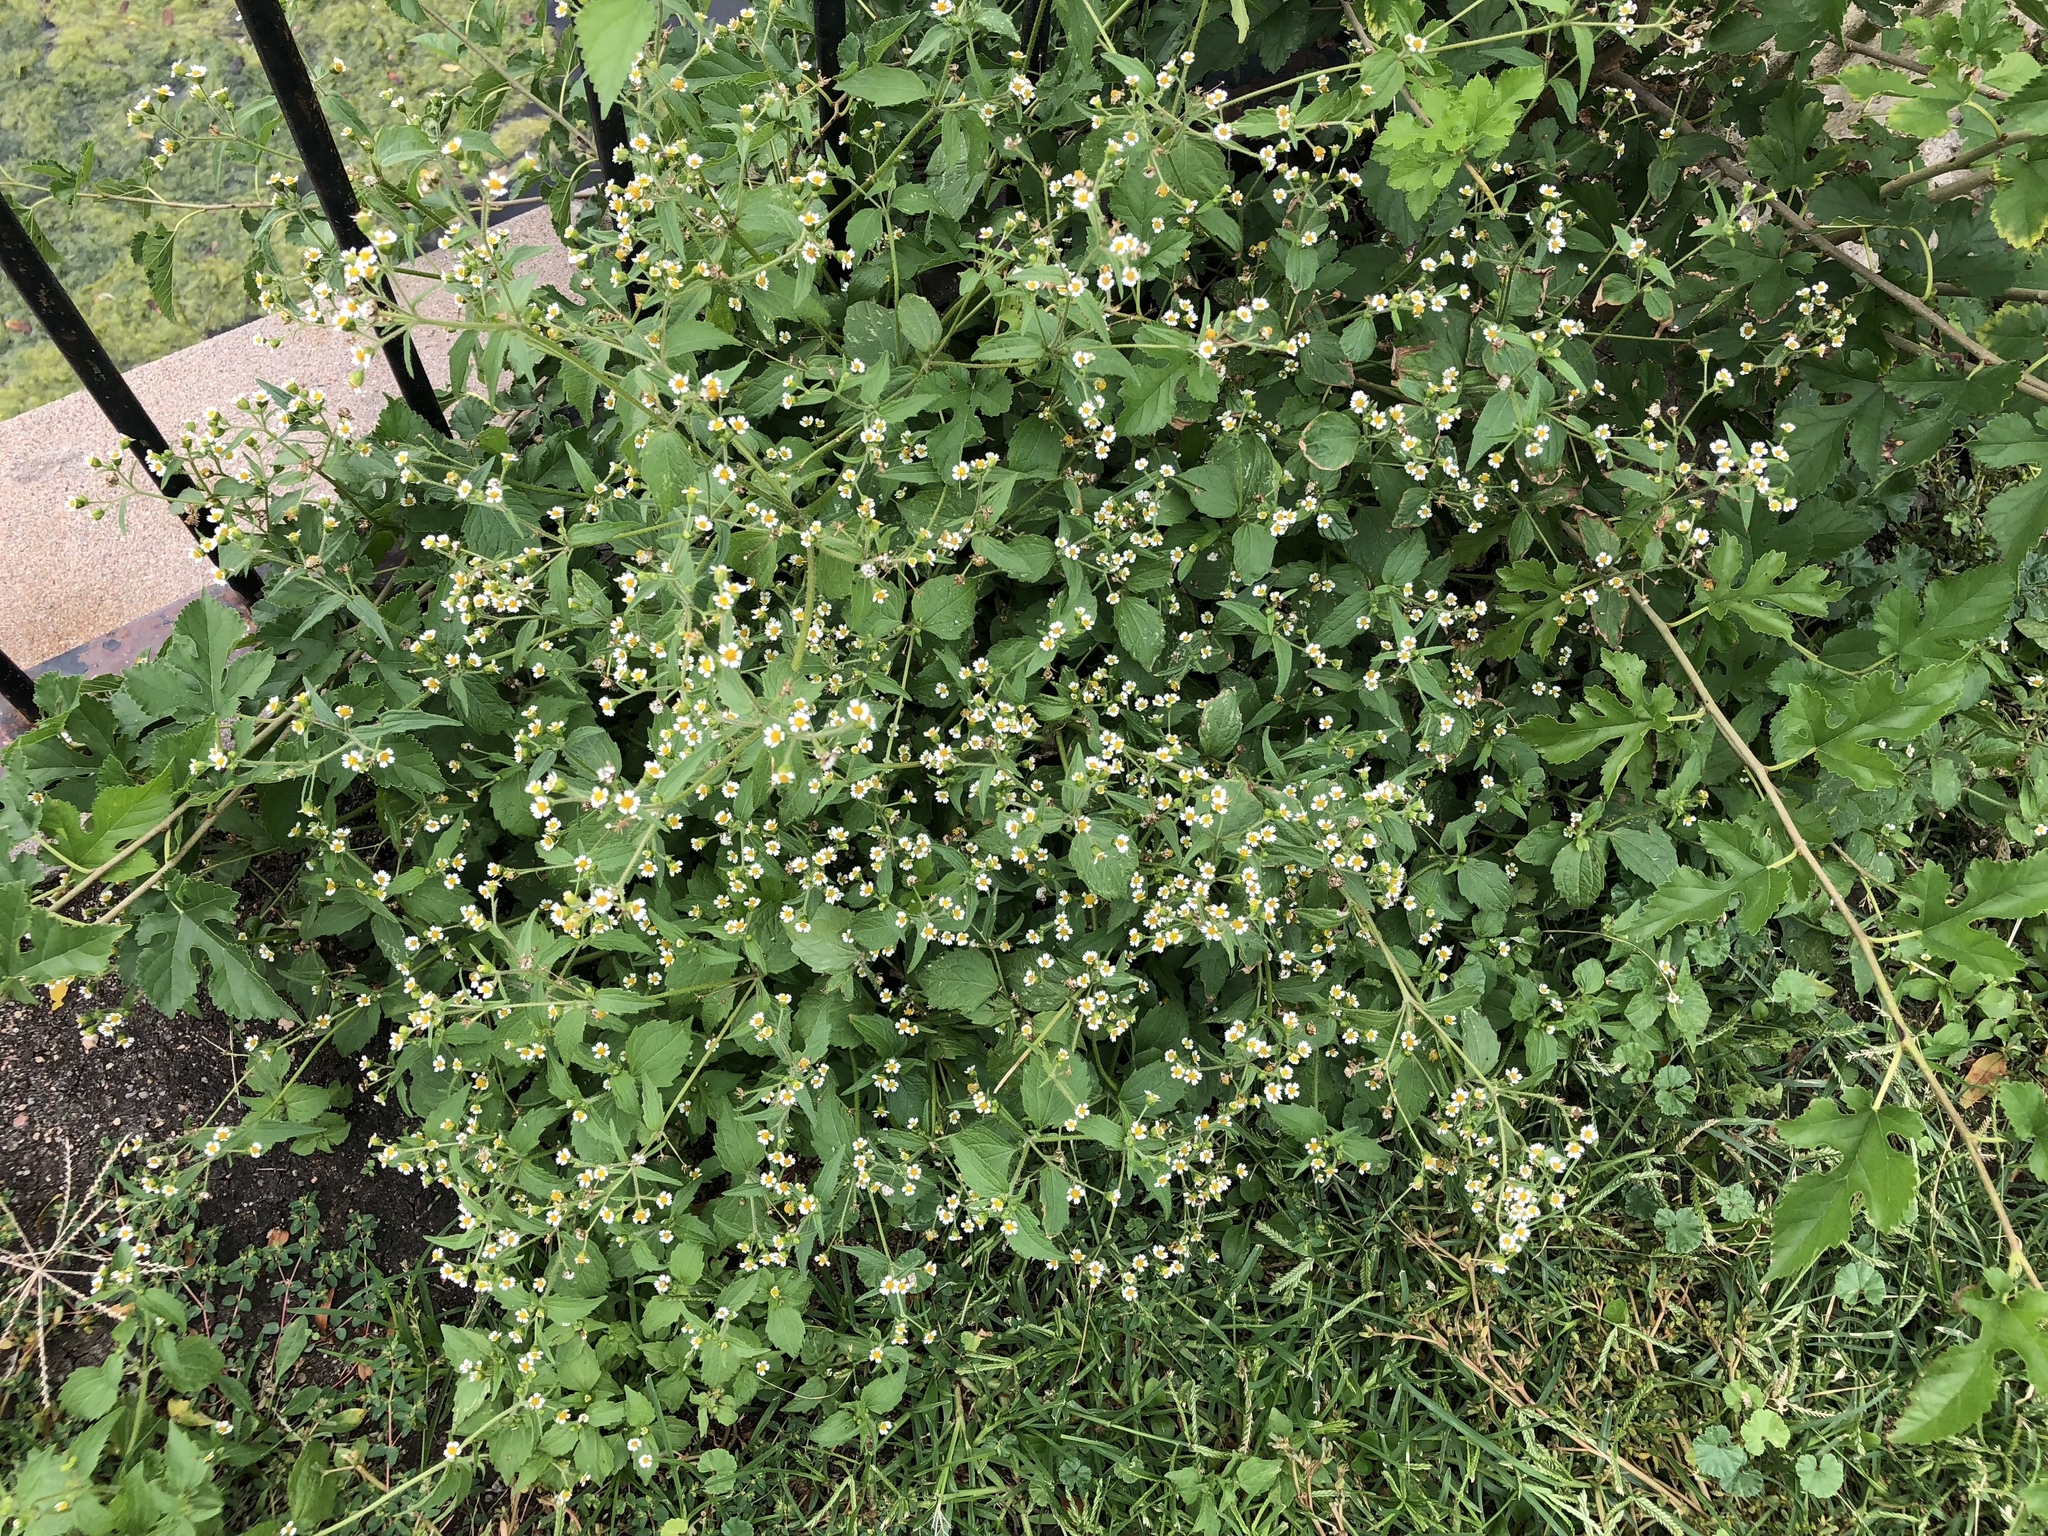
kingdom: Plantae
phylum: Tracheophyta
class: Magnoliopsida
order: Asterales
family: Asteraceae
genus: Galinsoga
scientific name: Galinsoga quadriradiata
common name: Shaggy soldier
